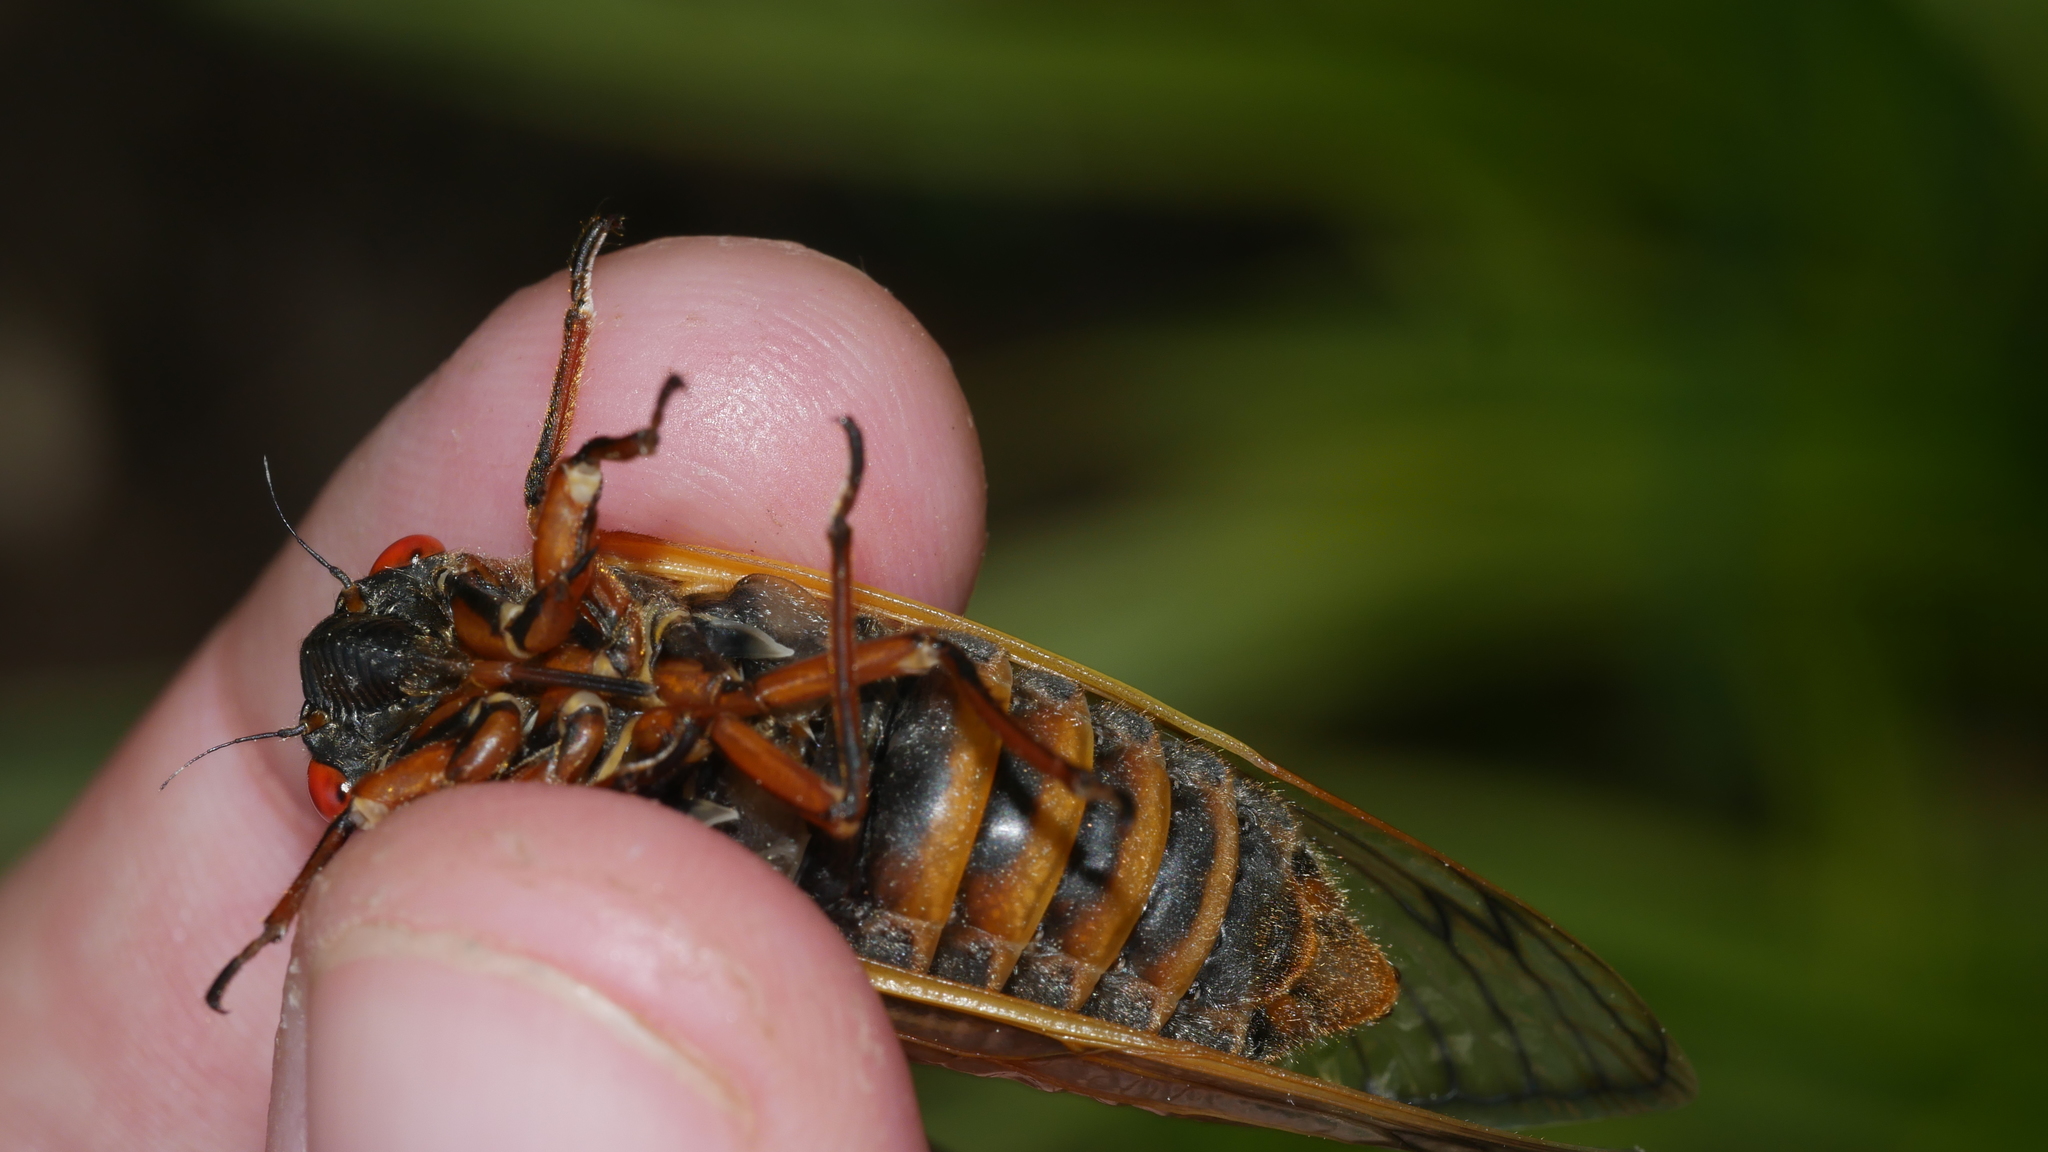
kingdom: Animalia
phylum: Arthropoda
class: Insecta
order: Hemiptera
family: Cicadidae
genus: Magicicada
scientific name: Magicicada septendecim
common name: Periodical cicada
